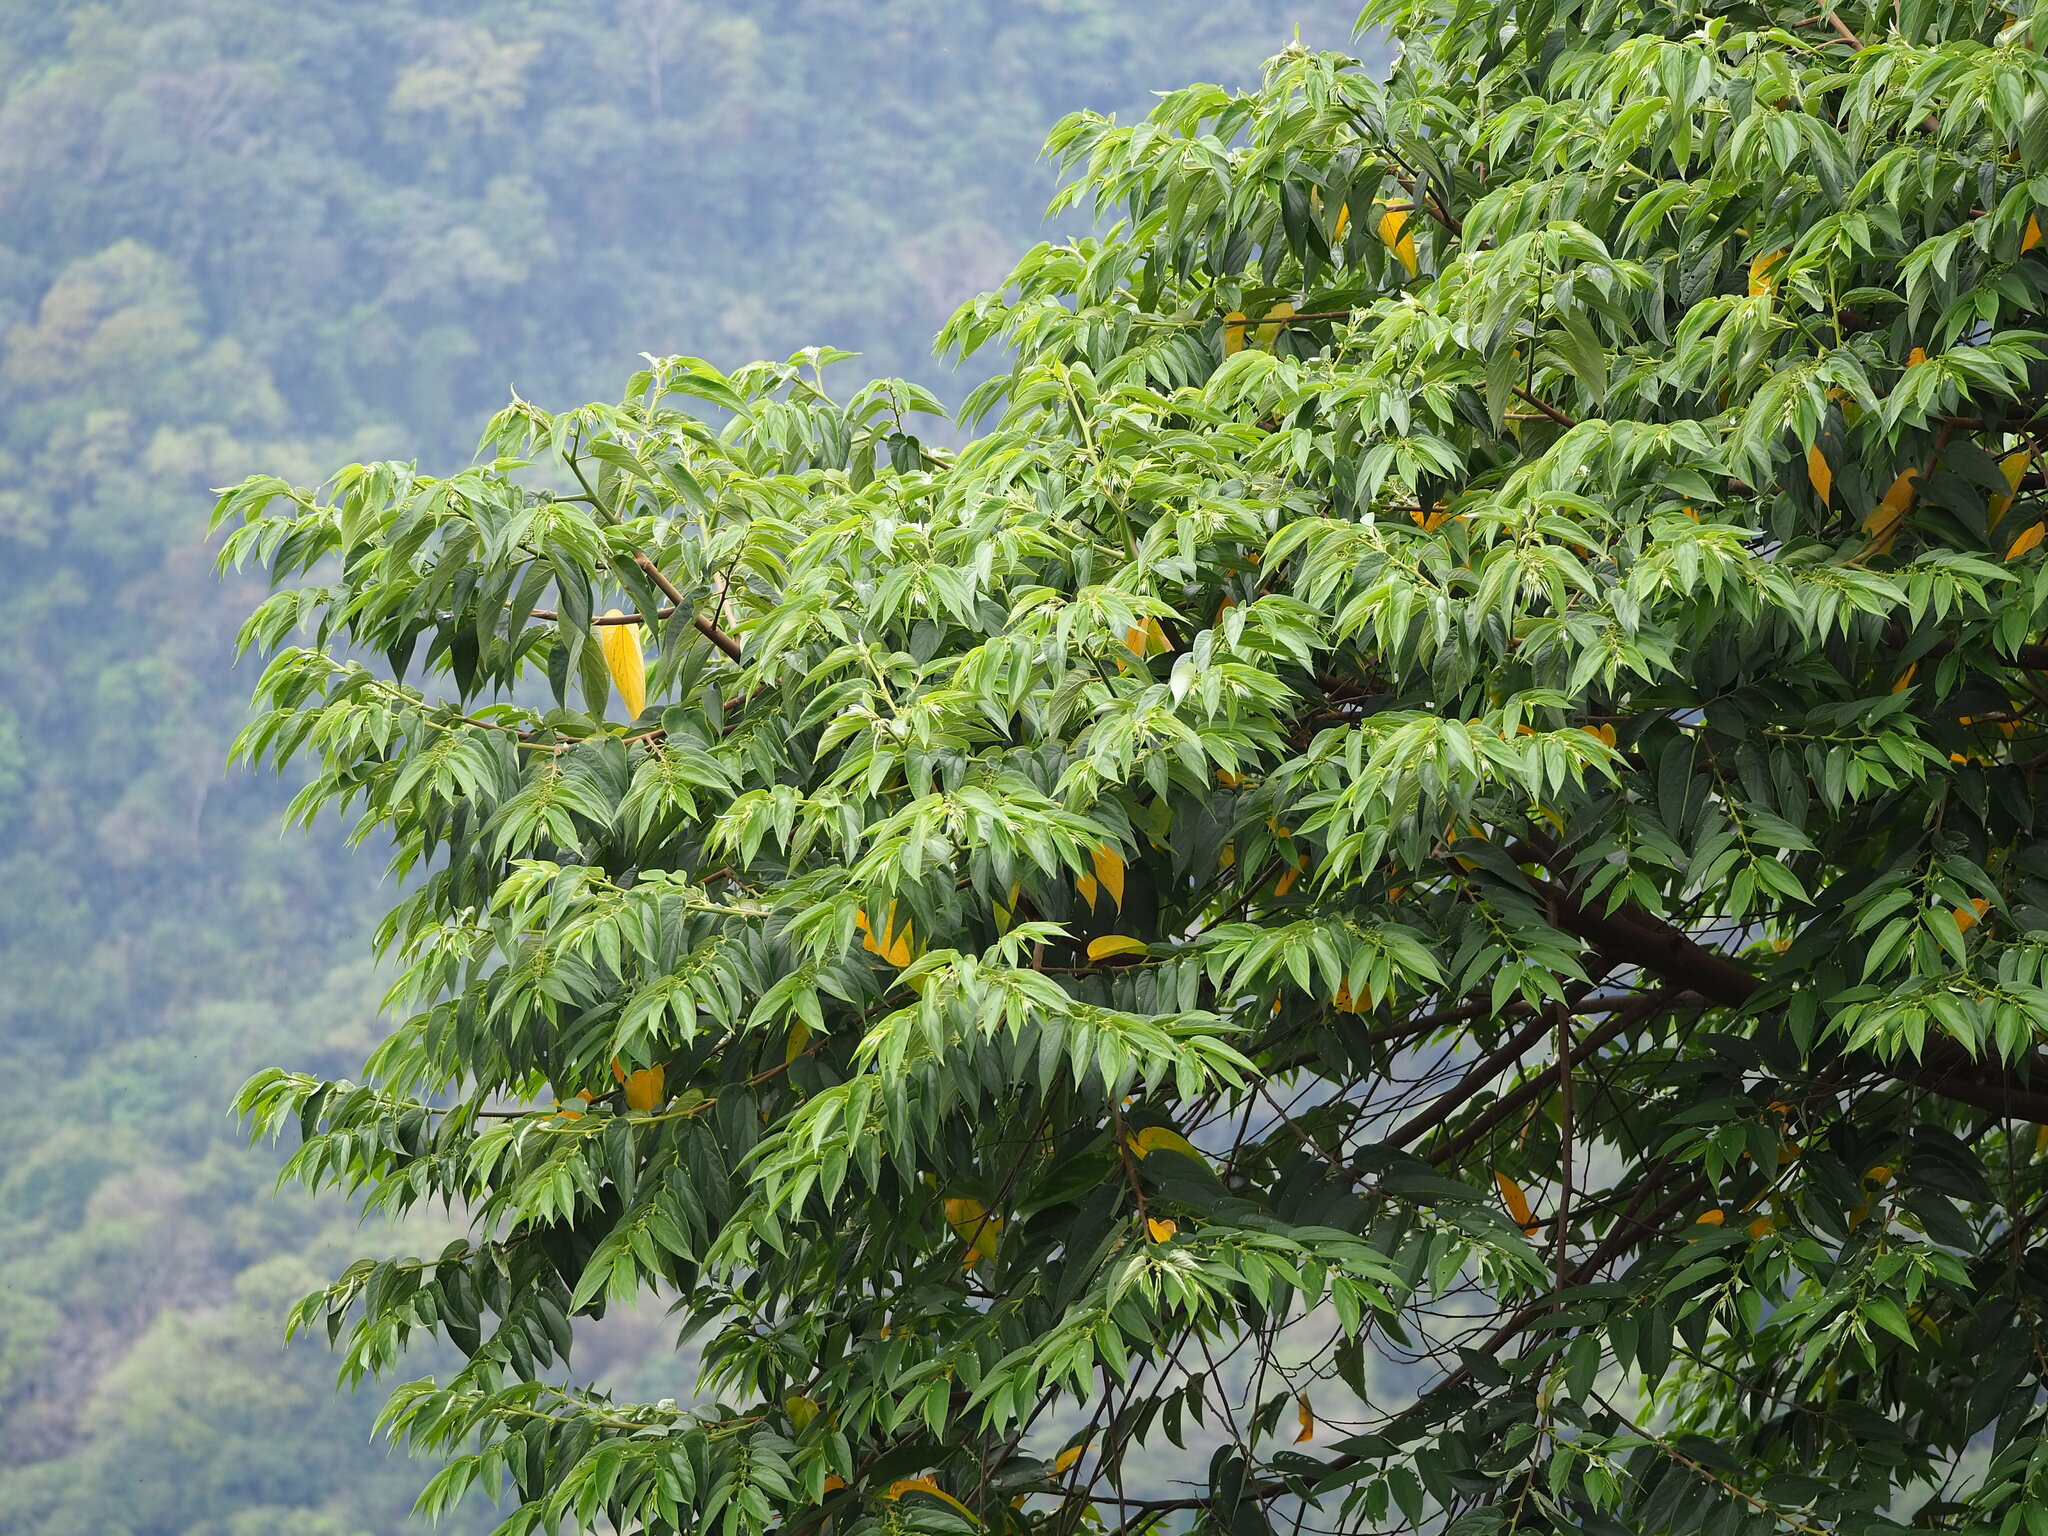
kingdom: Plantae
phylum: Tracheophyta
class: Magnoliopsida
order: Rosales
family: Cannabaceae
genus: Trema
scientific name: Trema orientale
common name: Indian charcoal tree
